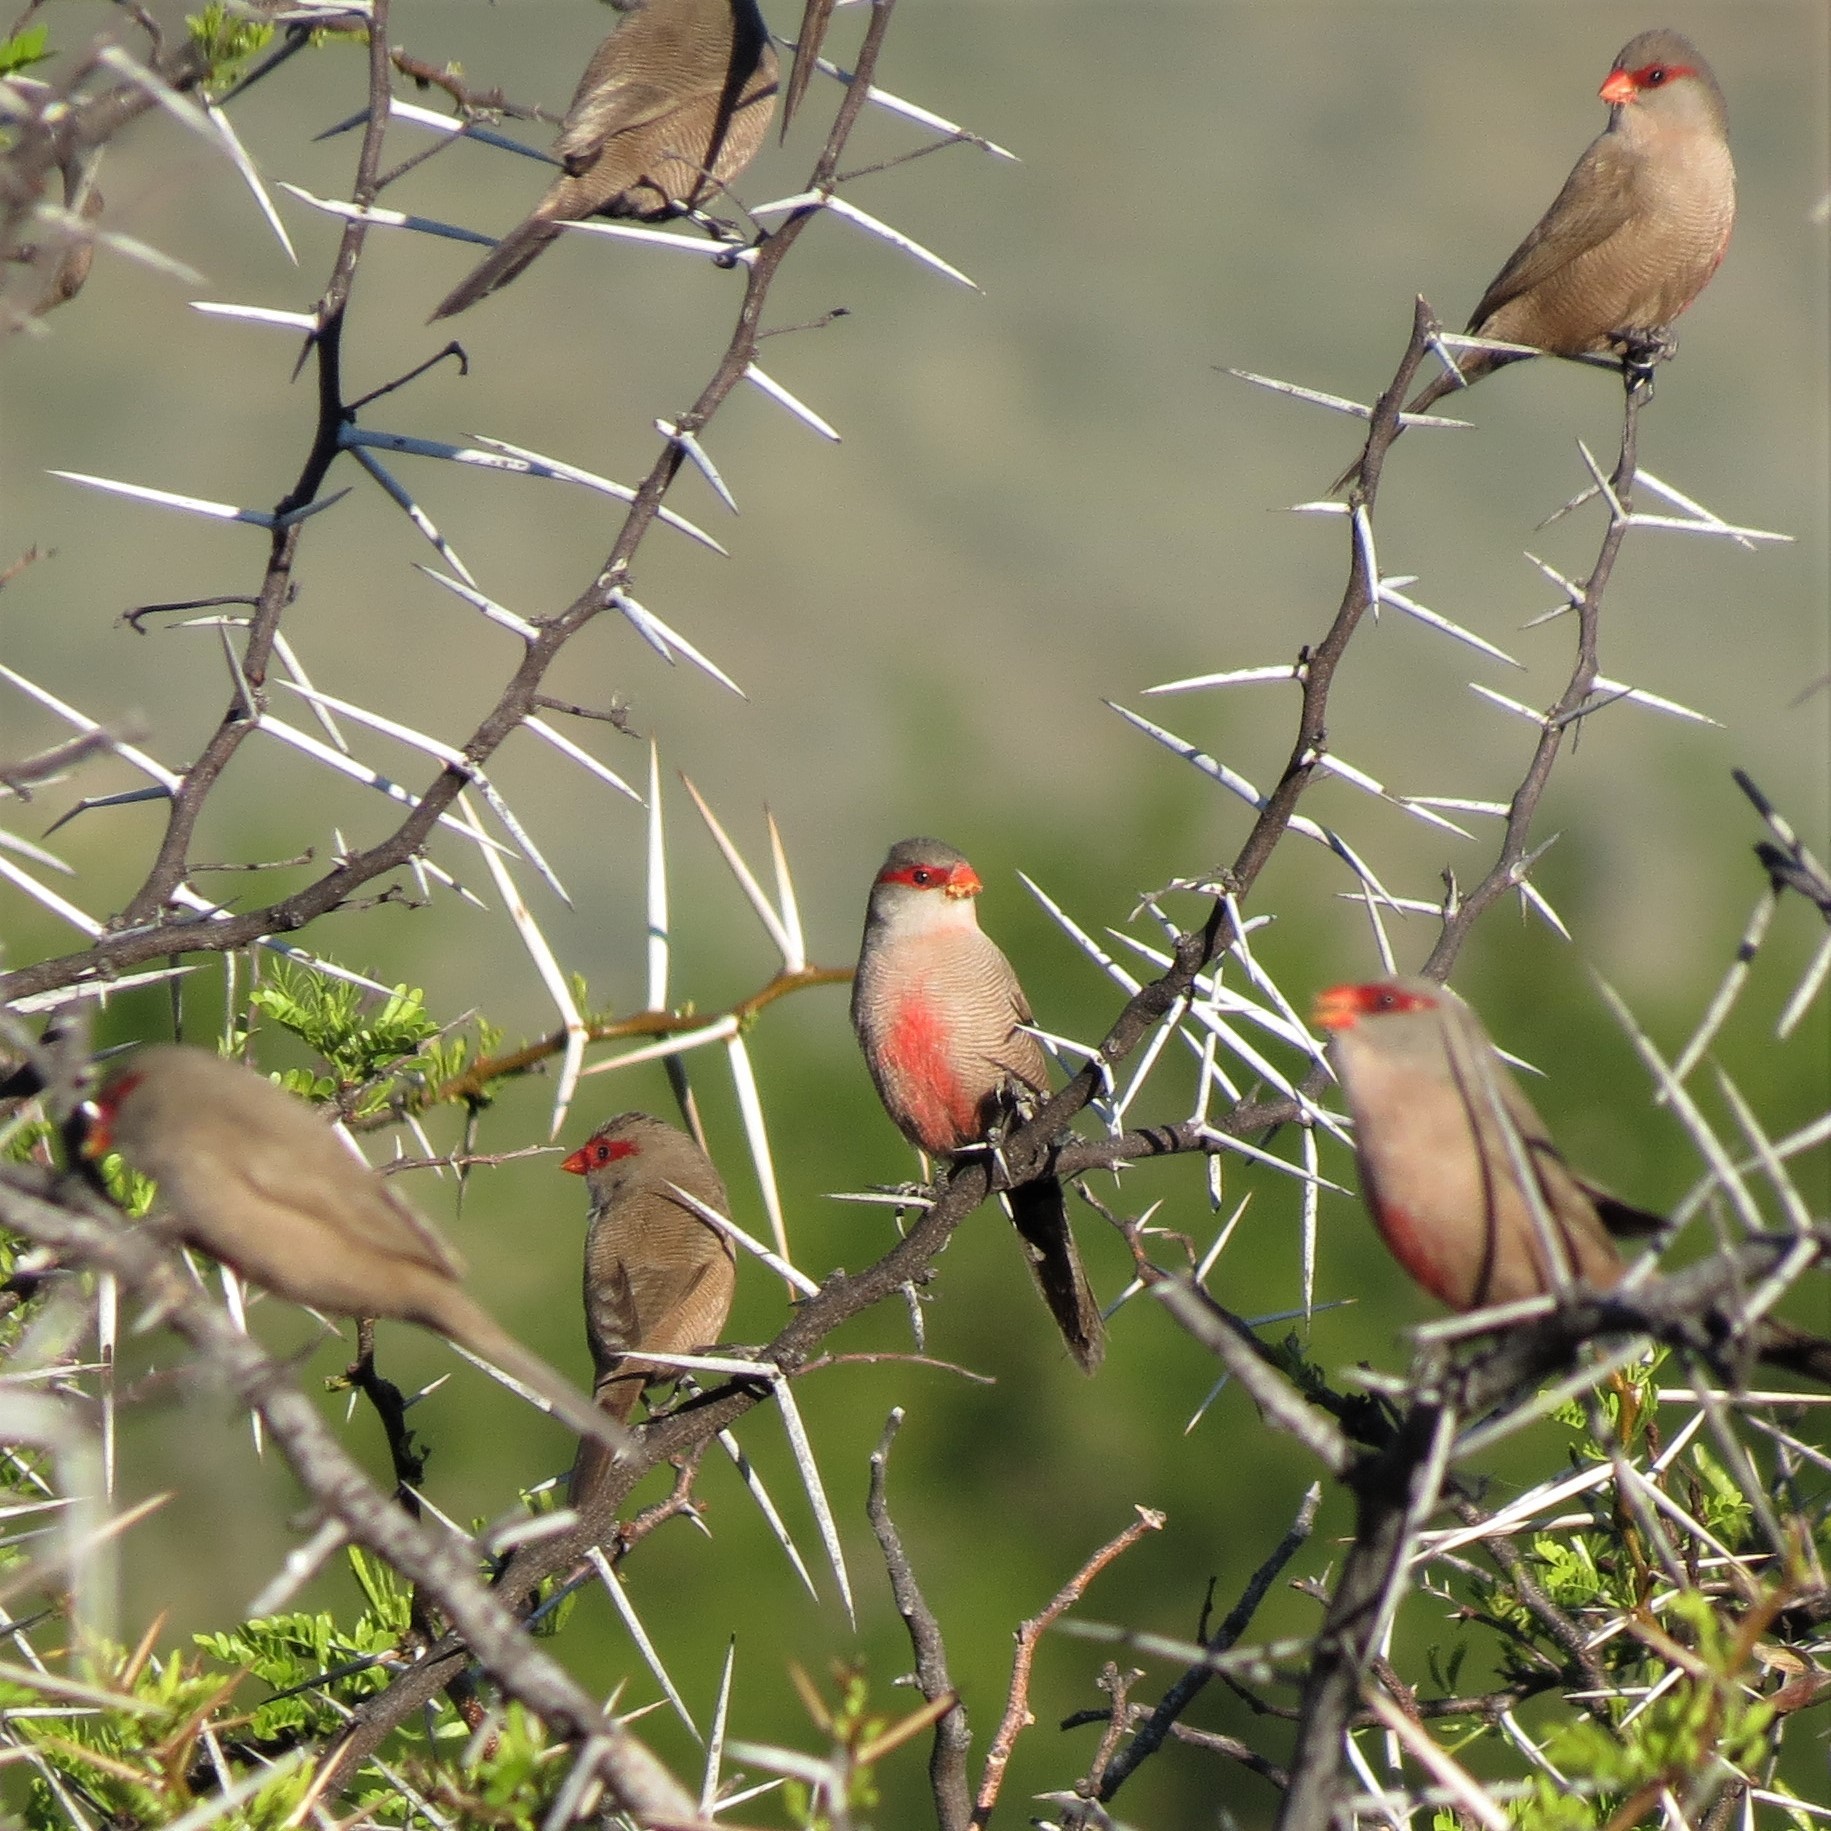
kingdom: Animalia
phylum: Chordata
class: Aves
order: Passeriformes
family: Estrildidae
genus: Estrilda
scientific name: Estrilda astrild
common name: Common waxbill
